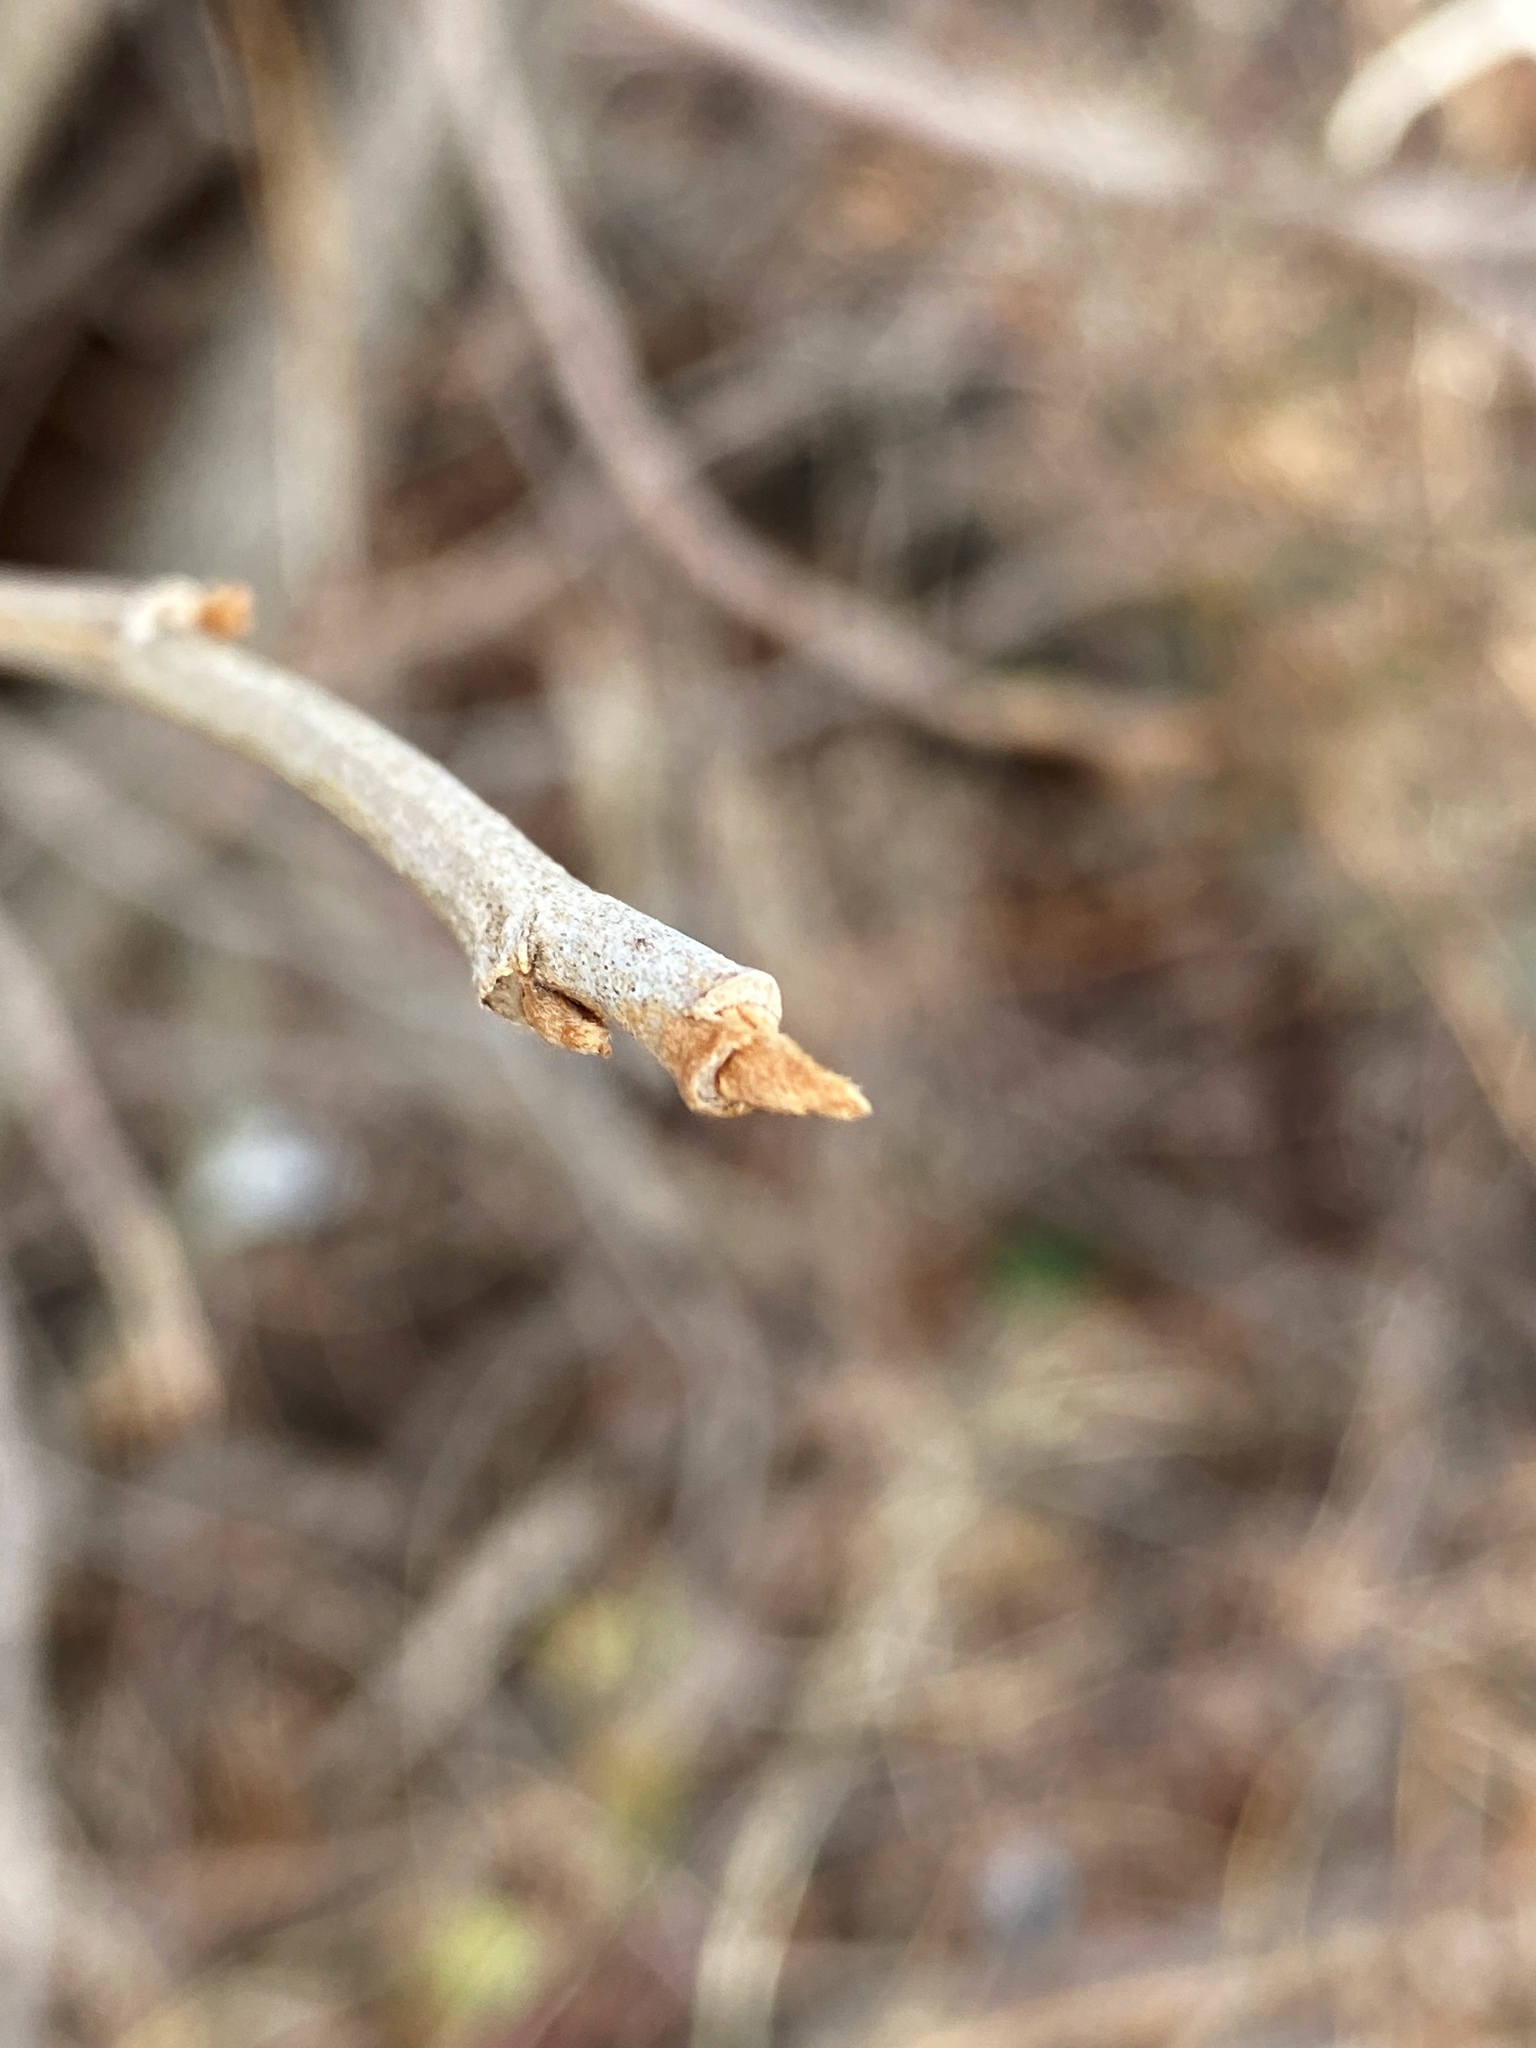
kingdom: Plantae
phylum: Tracheophyta
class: Magnoliopsida
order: Sapindales
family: Anacardiaceae
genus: Toxicodendron
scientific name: Toxicodendron radicans
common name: Poison ivy
